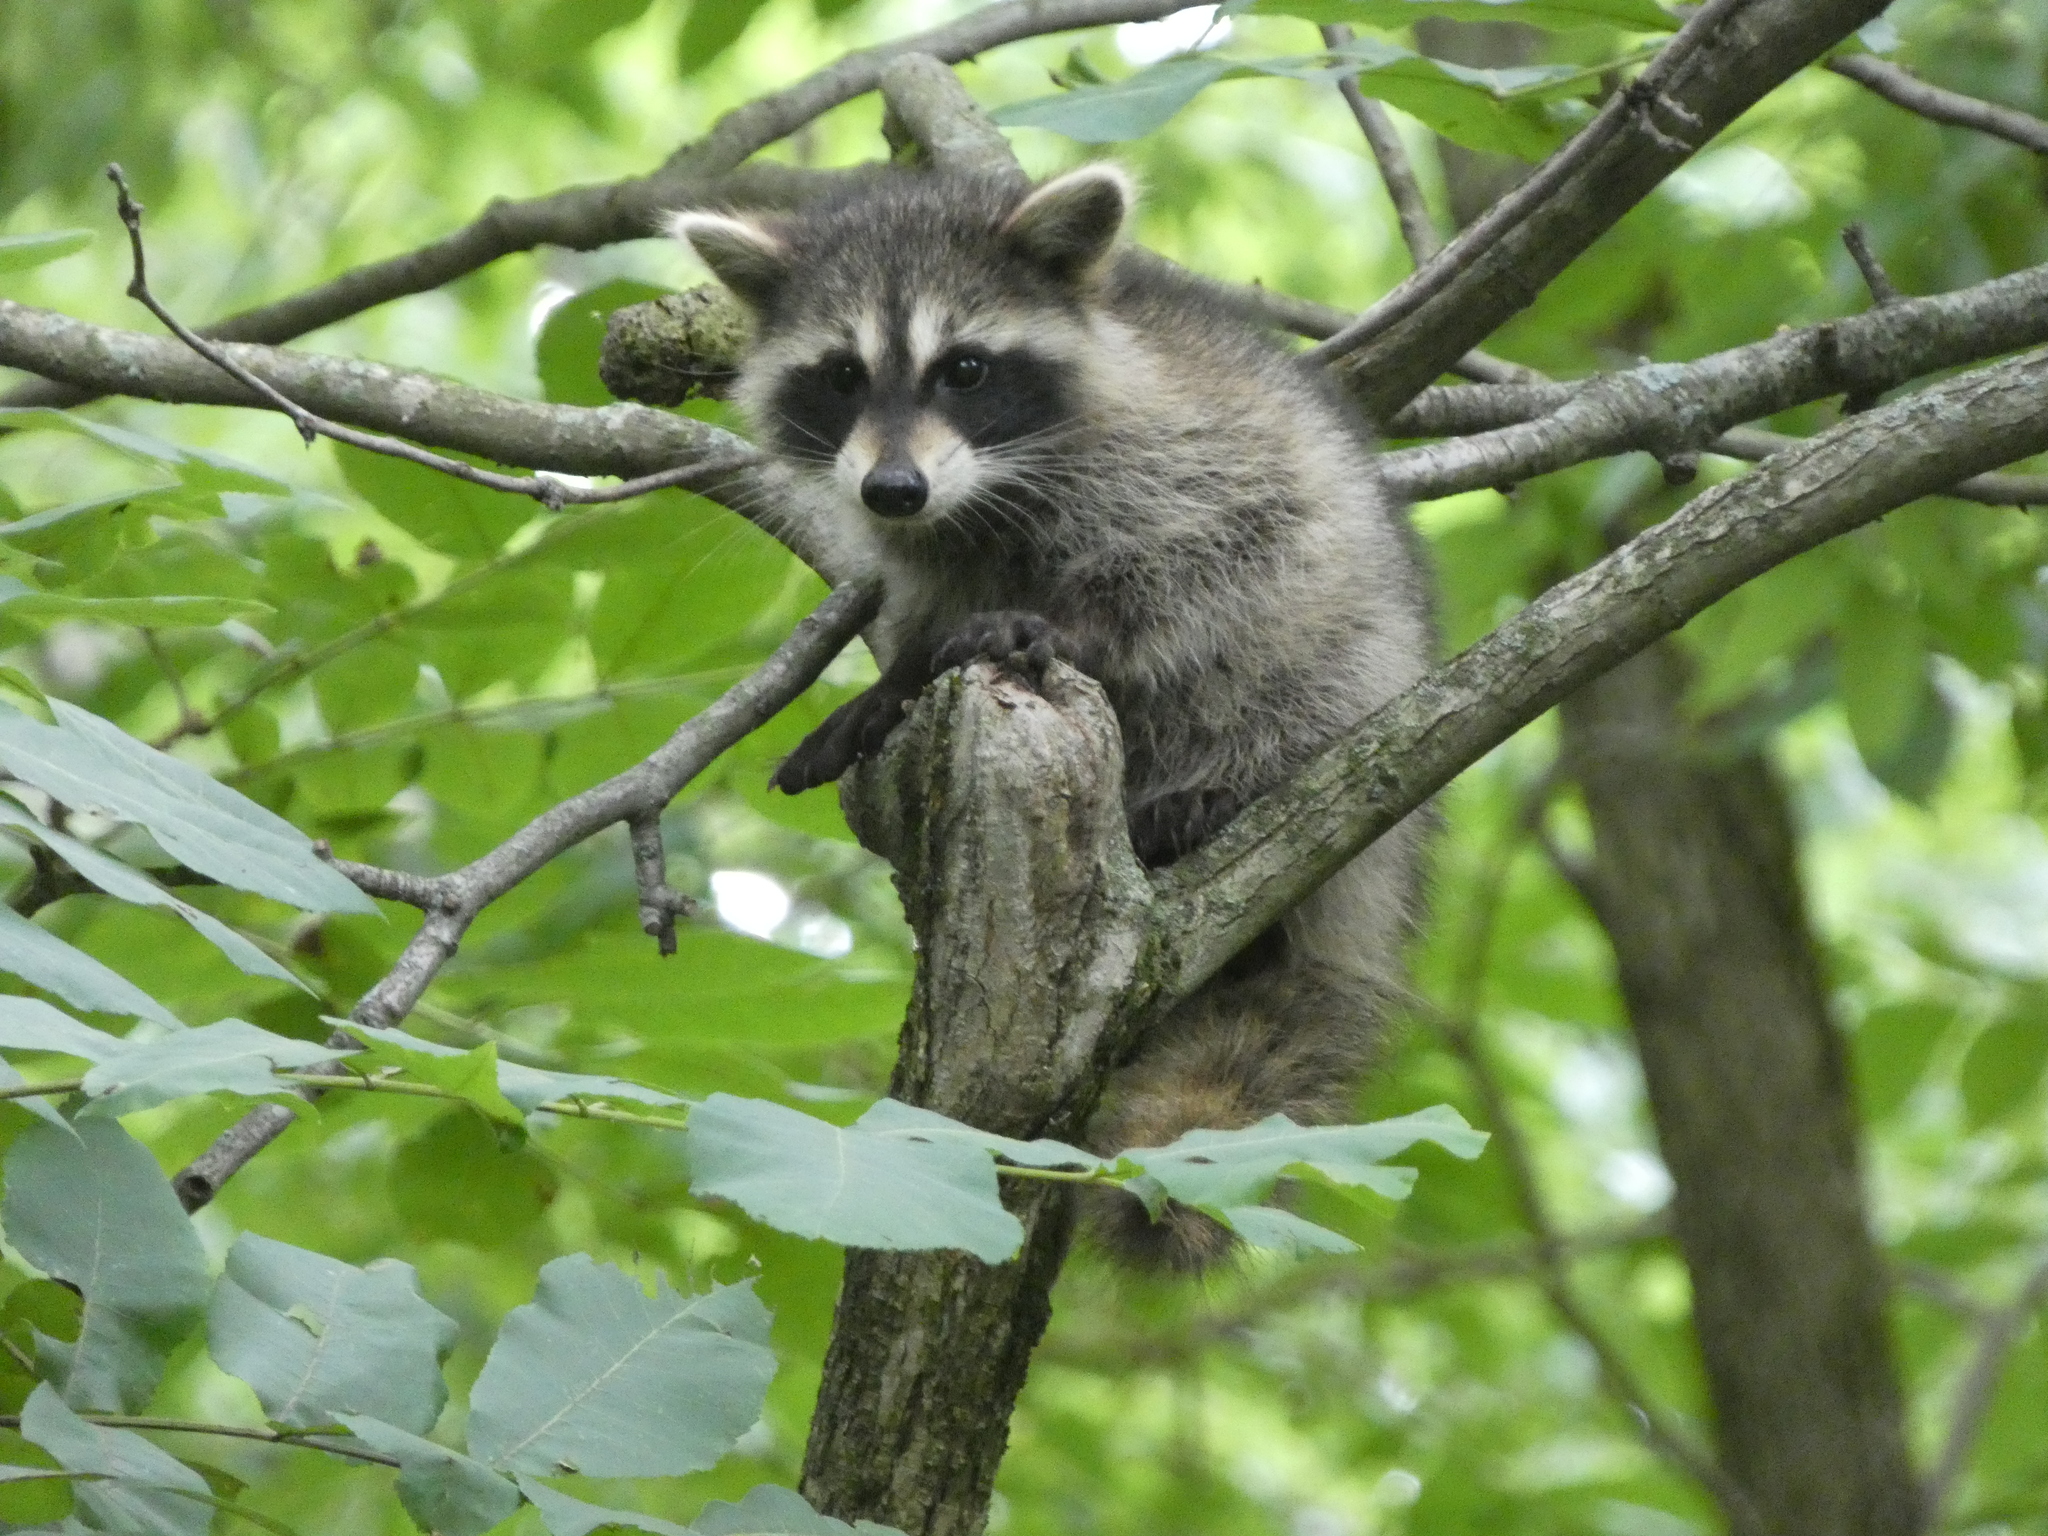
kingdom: Animalia
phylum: Chordata
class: Mammalia
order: Carnivora
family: Procyonidae
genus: Procyon
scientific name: Procyon lotor
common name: Raccoon
